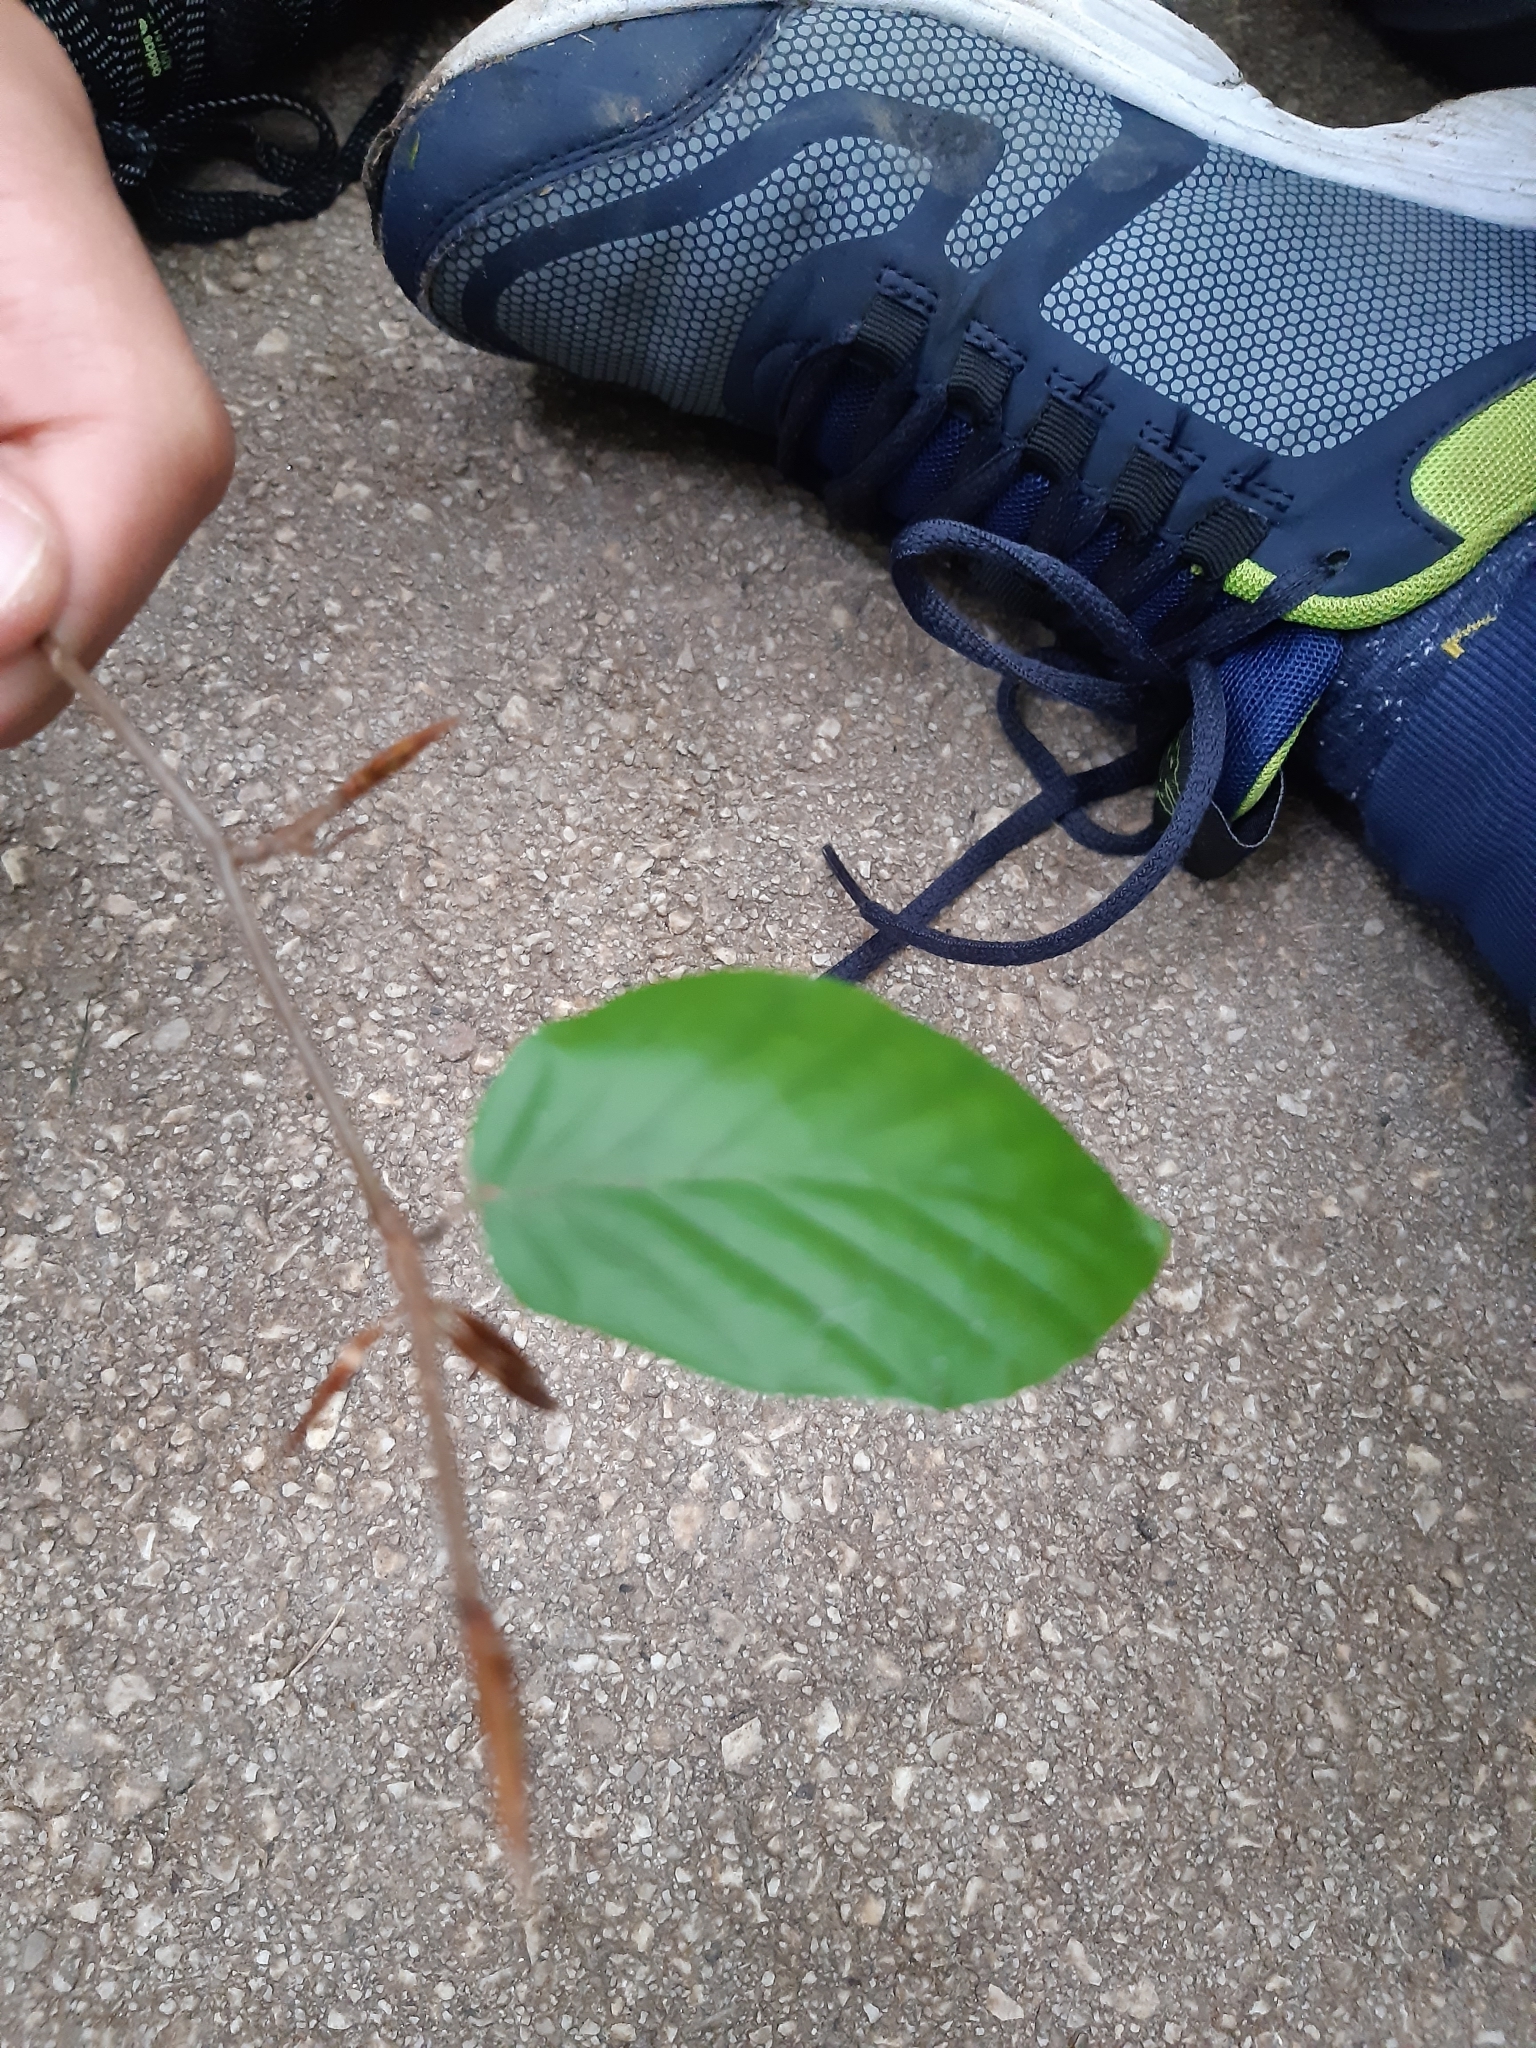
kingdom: Plantae
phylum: Tracheophyta
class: Magnoliopsida
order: Fagales
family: Fagaceae
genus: Fagus
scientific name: Fagus sylvatica
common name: Beech
